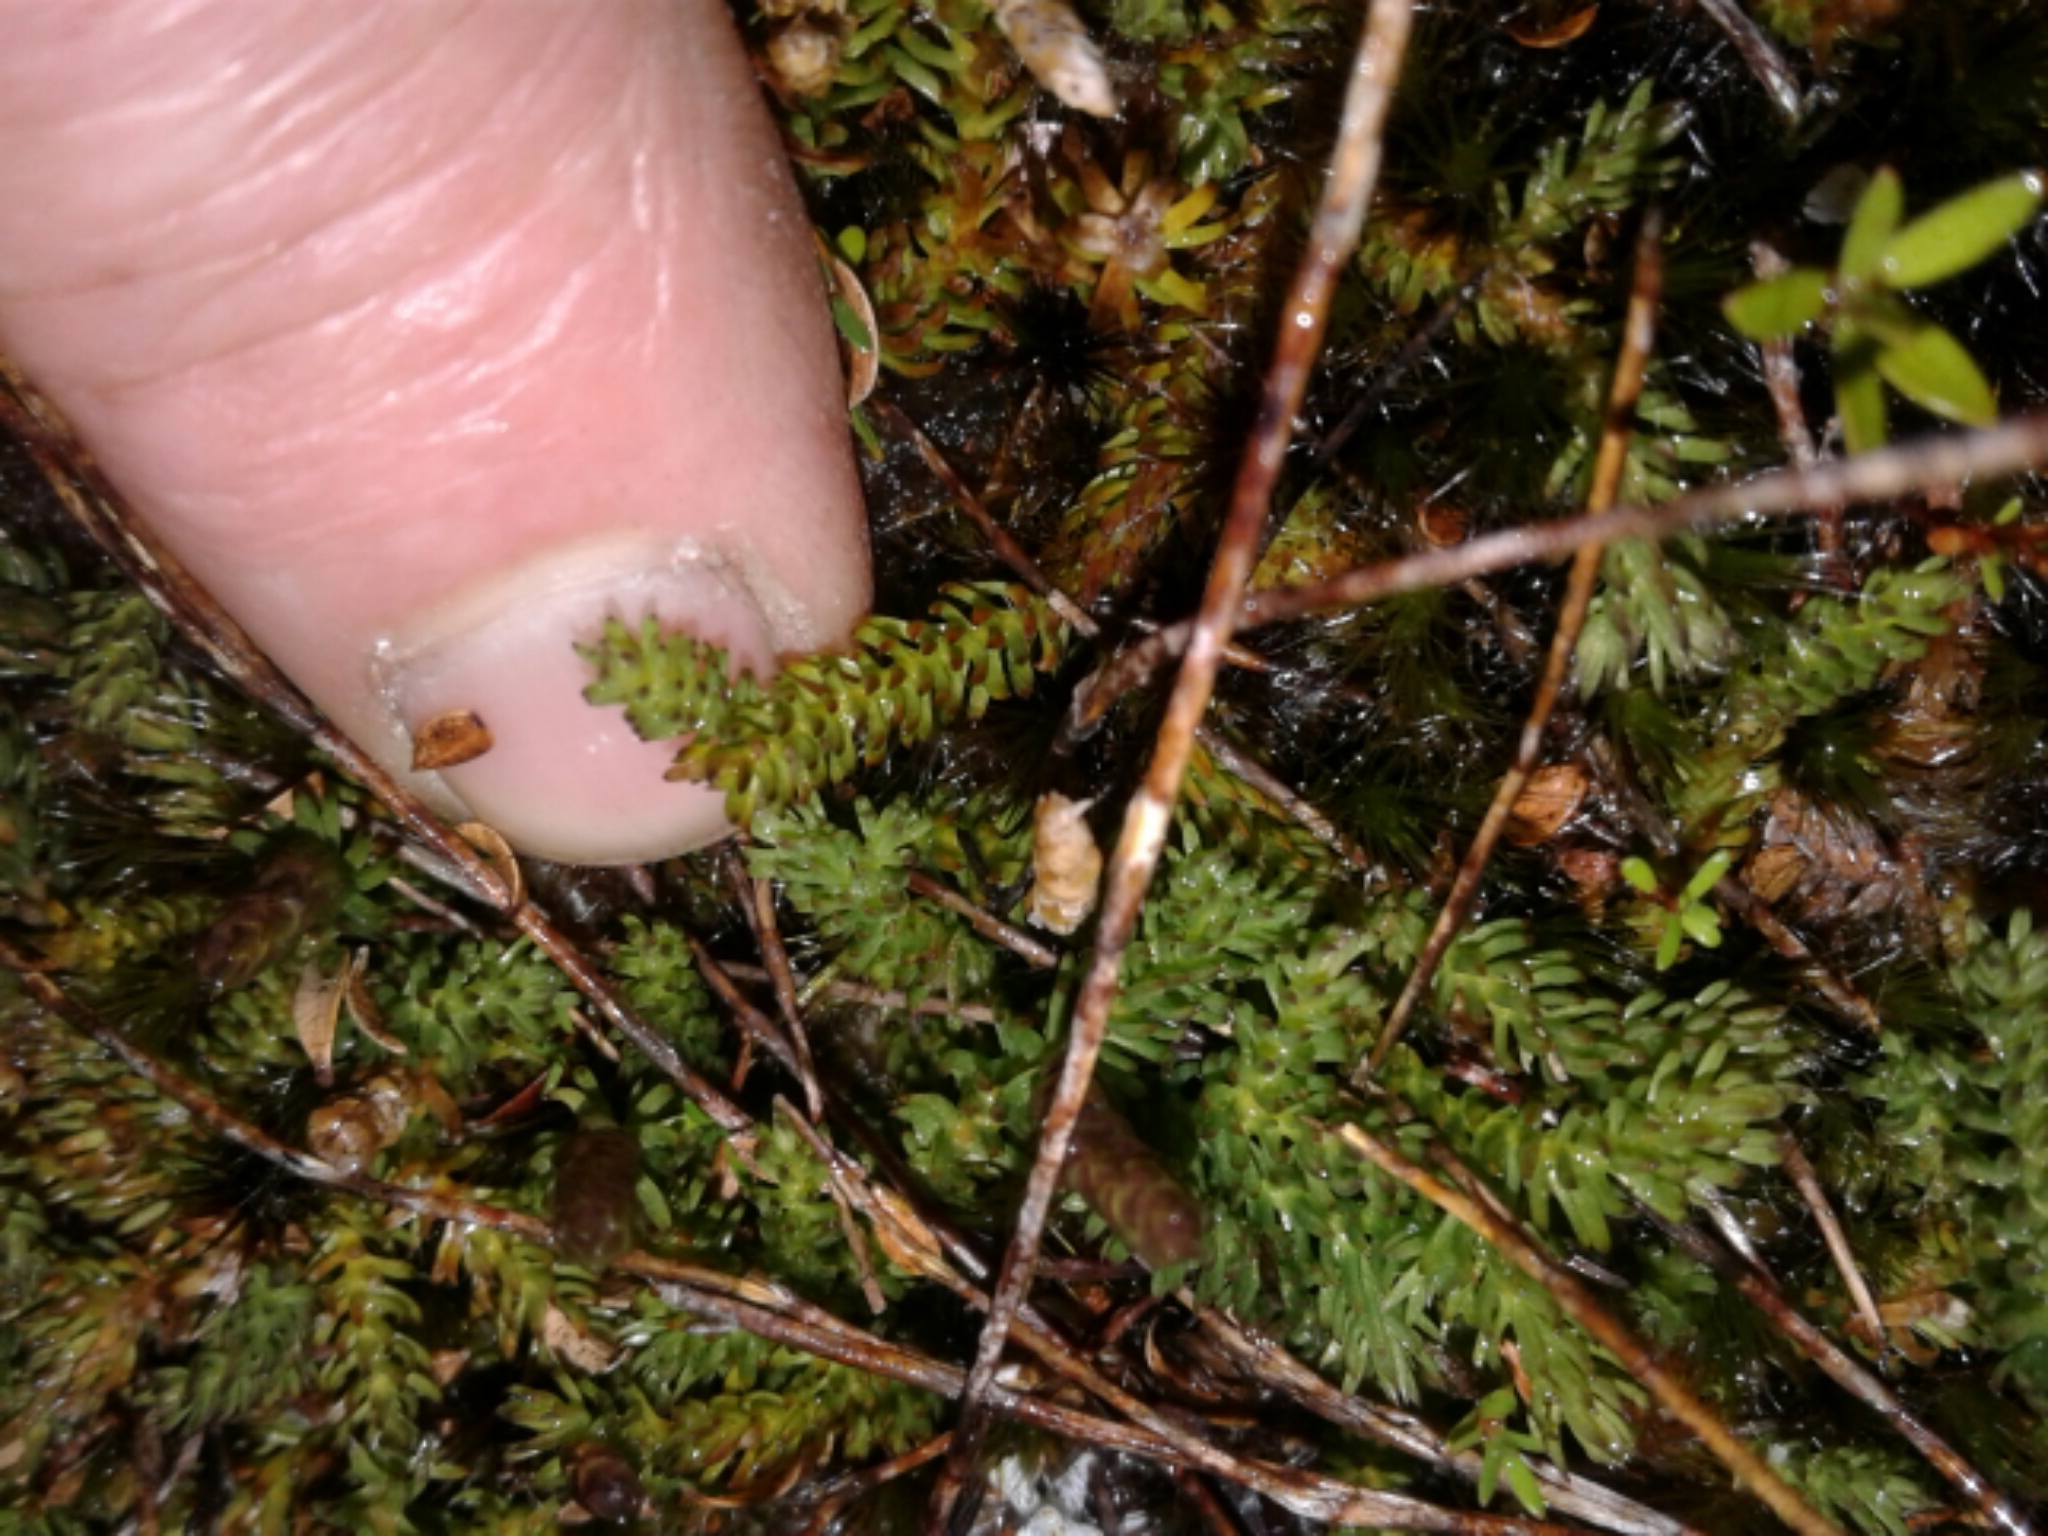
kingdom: Plantae
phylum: Tracheophyta
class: Lycopodiopsida
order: Lycopodiales
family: Lycopodiaceae
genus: Lateristachys
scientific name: Lateristachys diffusa
